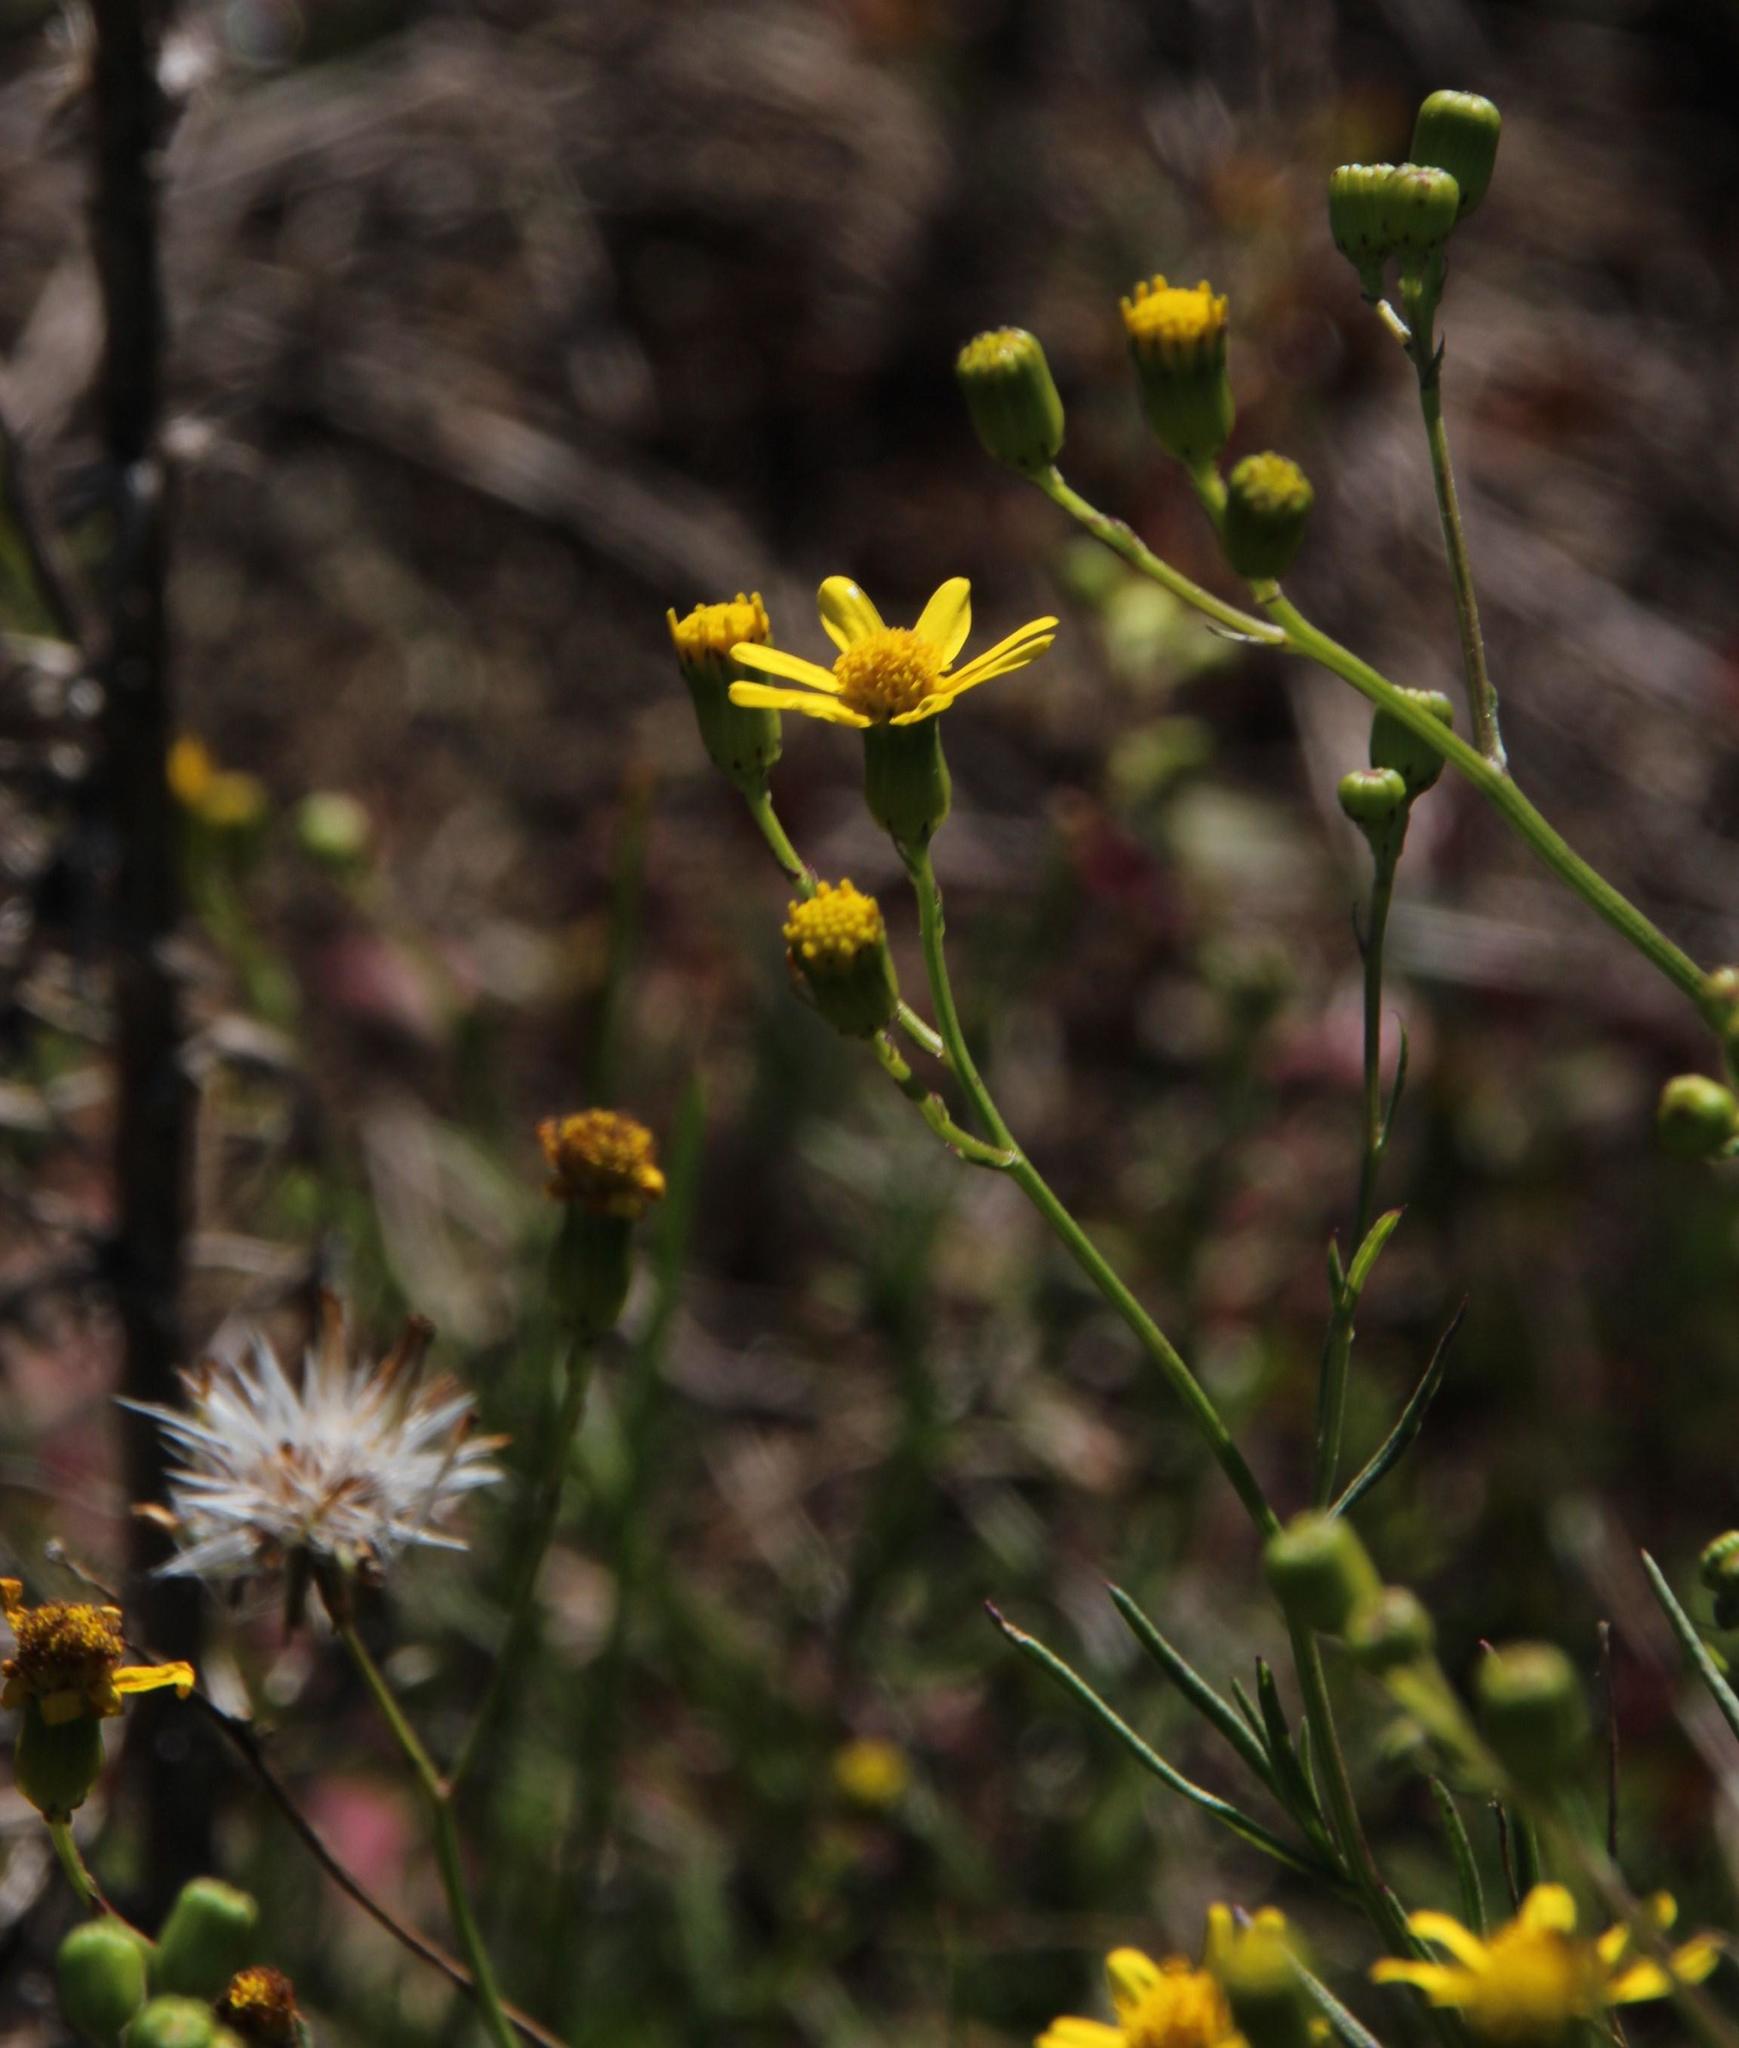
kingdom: Plantae
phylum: Tracheophyta
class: Magnoliopsida
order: Asterales
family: Asteraceae
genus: Senecio
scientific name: Senecio burchellii
